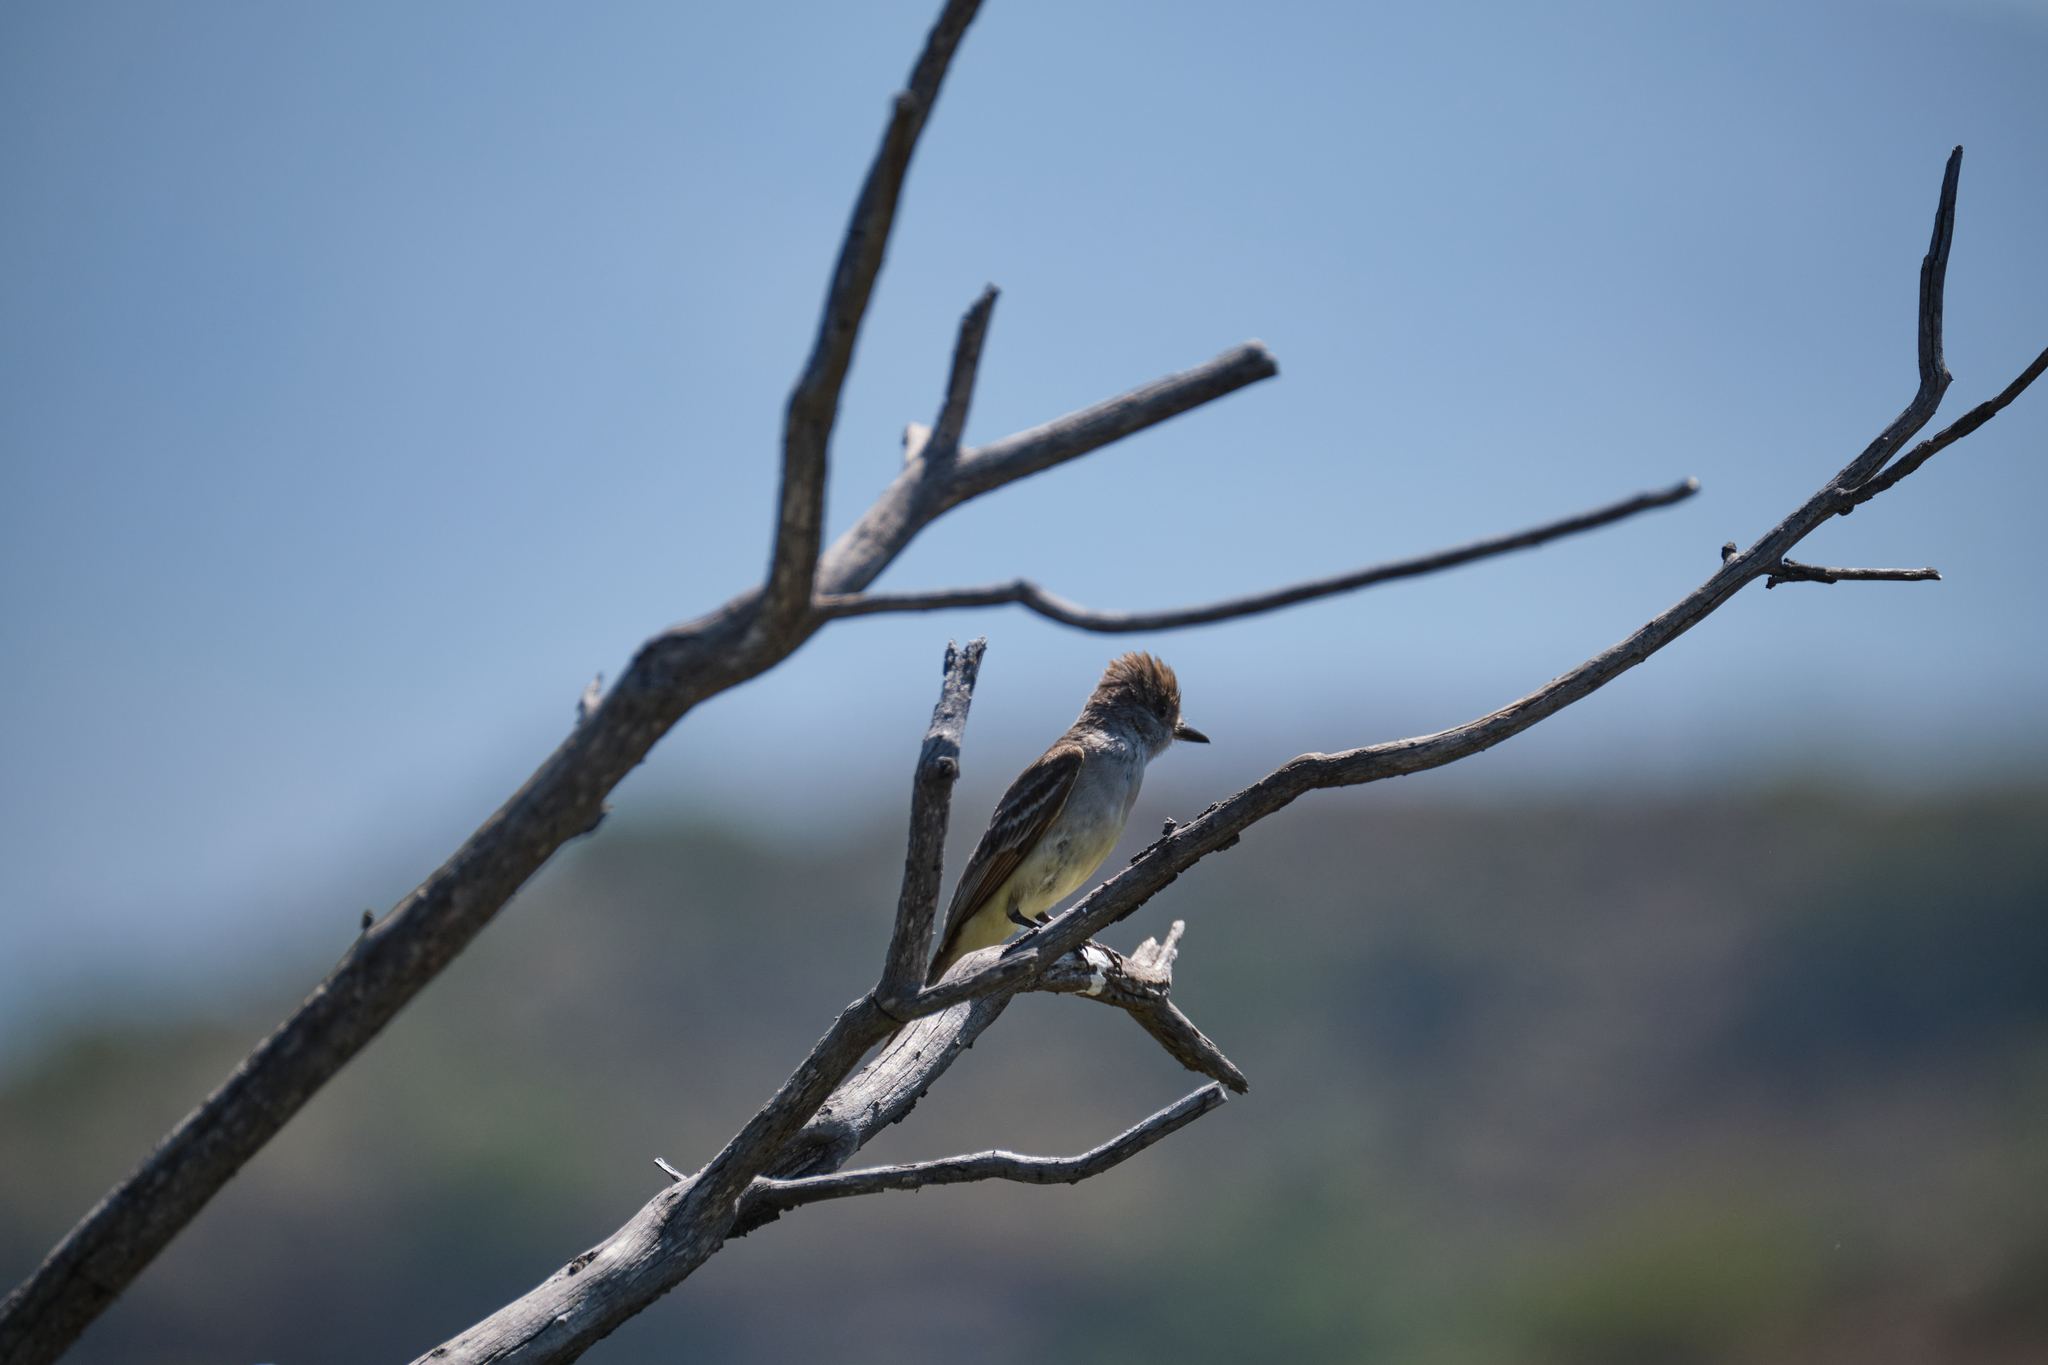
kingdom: Animalia
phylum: Chordata
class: Aves
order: Passeriformes
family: Tyrannidae
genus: Myiarchus
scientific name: Myiarchus cinerascens
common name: Ash-throated flycatcher
